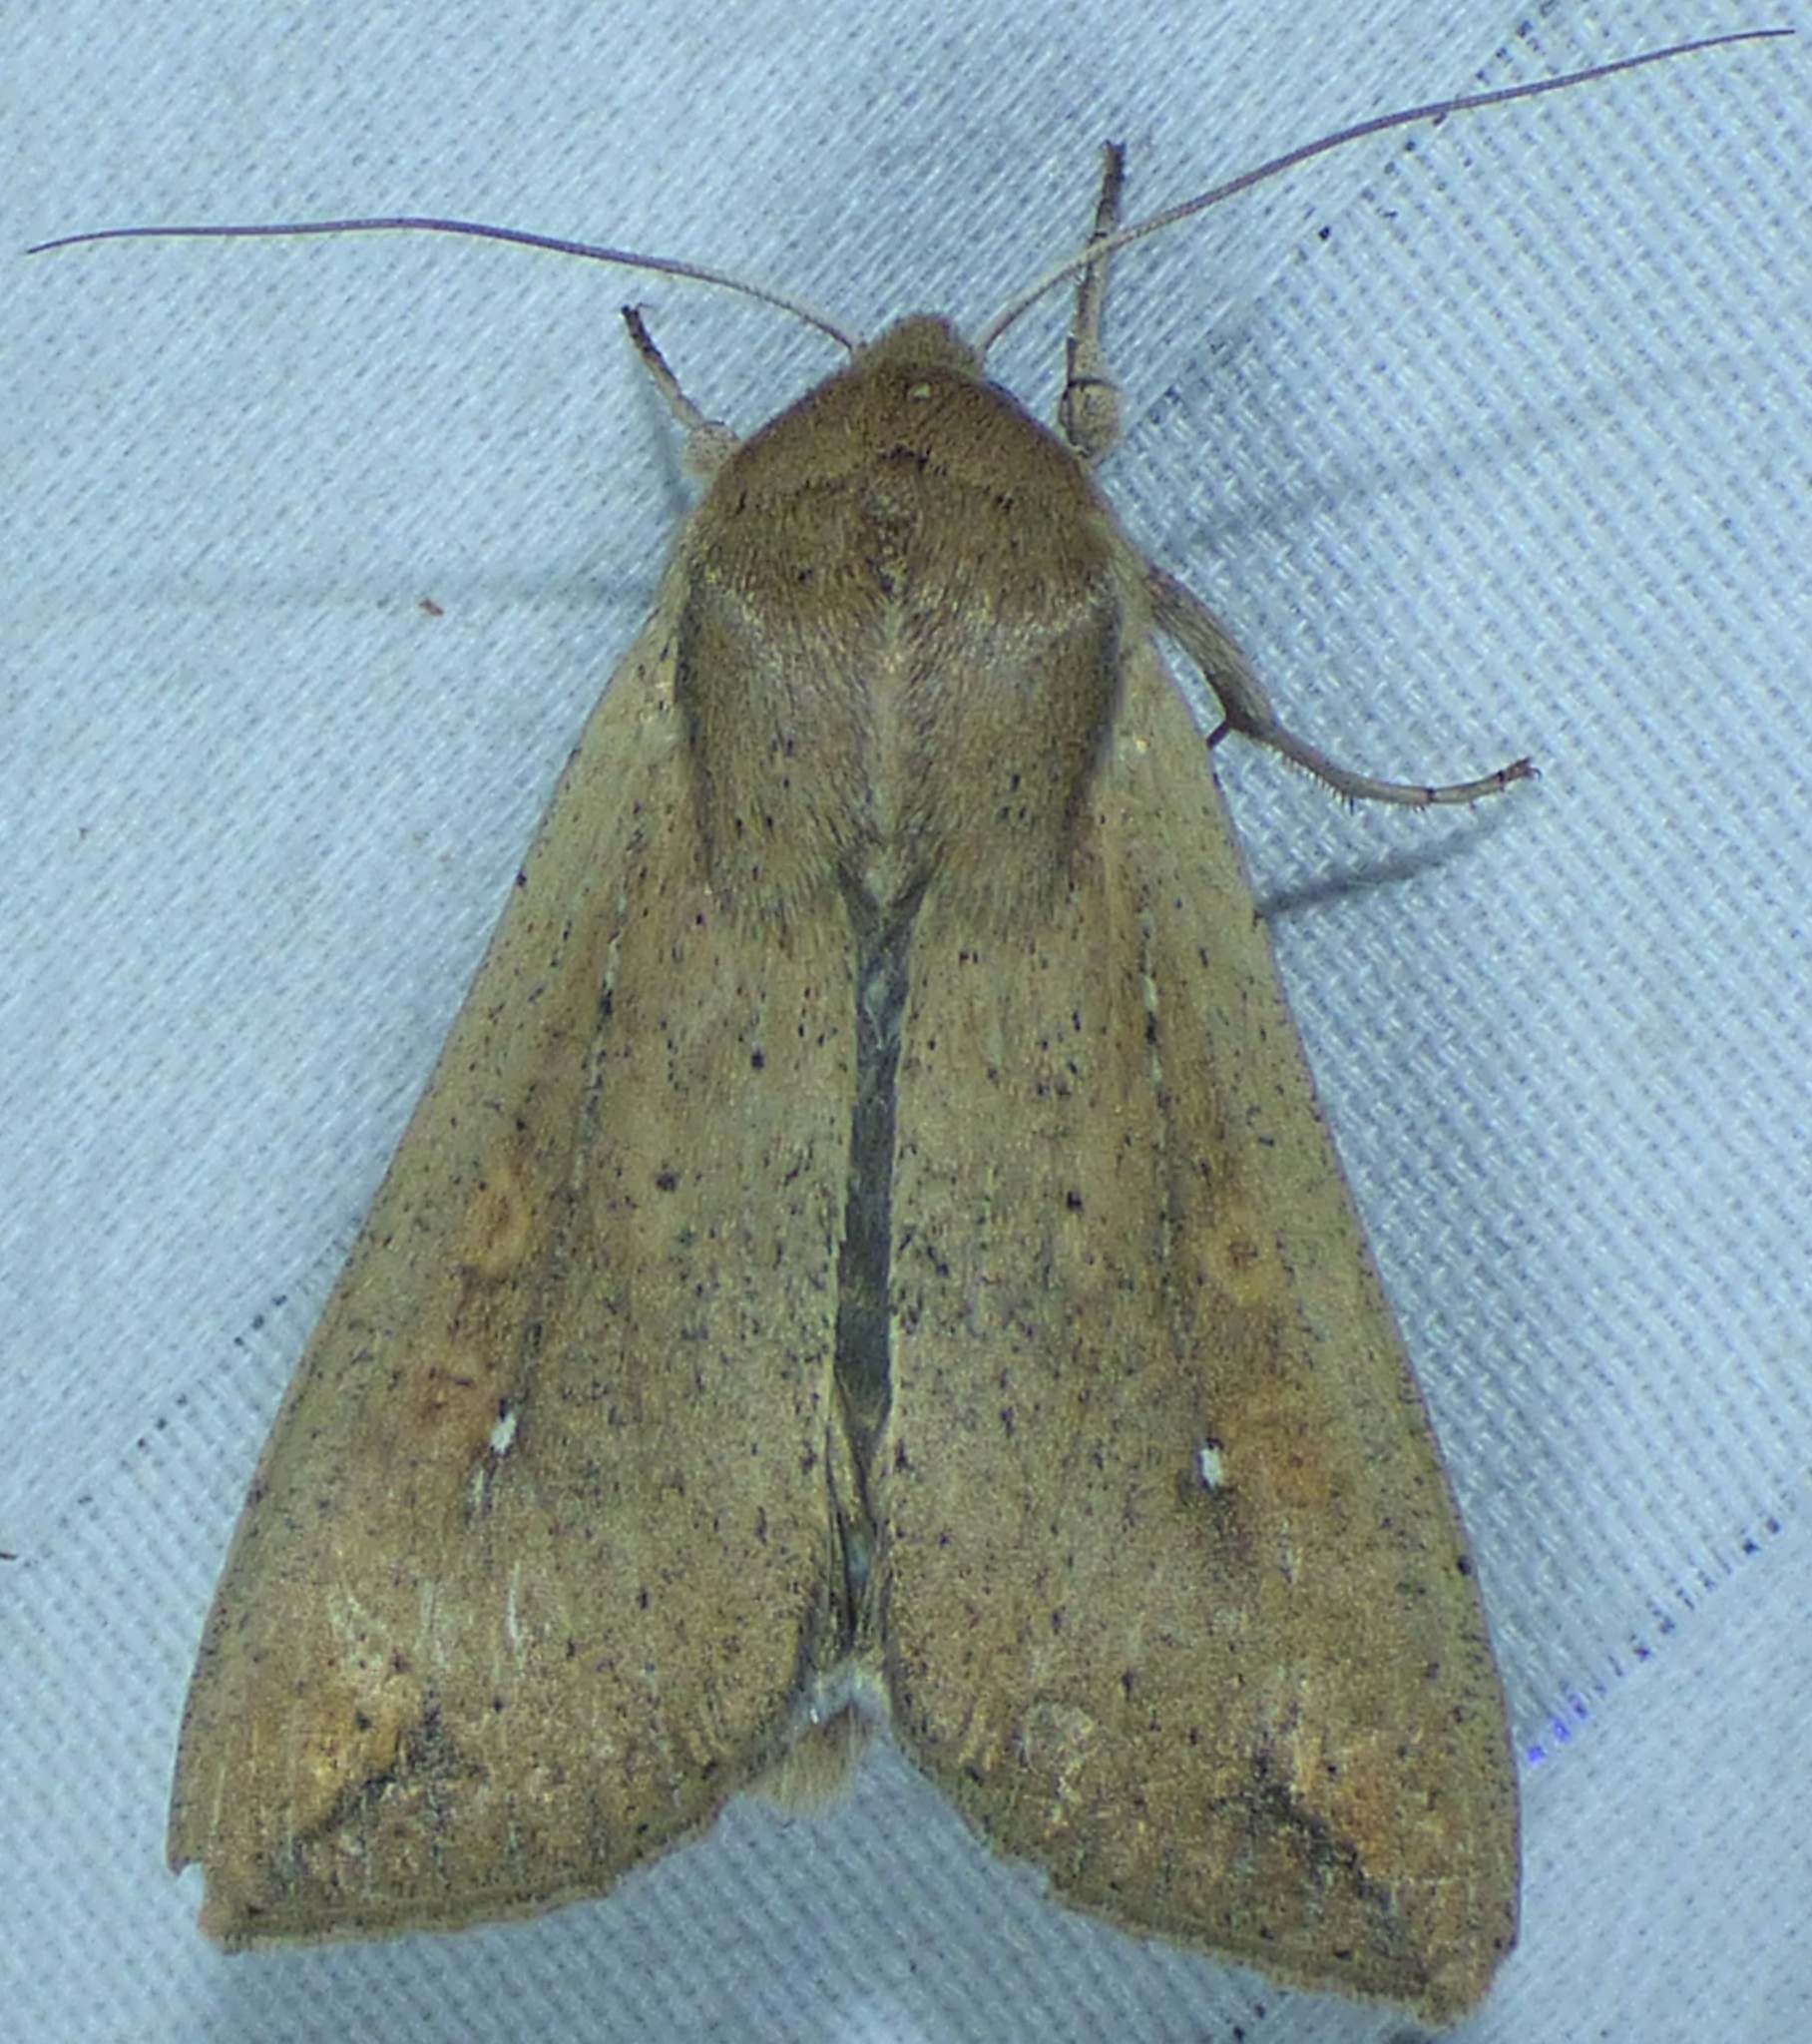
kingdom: Animalia
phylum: Arthropoda
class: Insecta
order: Lepidoptera
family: Noctuidae
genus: Mythimna
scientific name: Mythimna unipuncta
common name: White-speck
